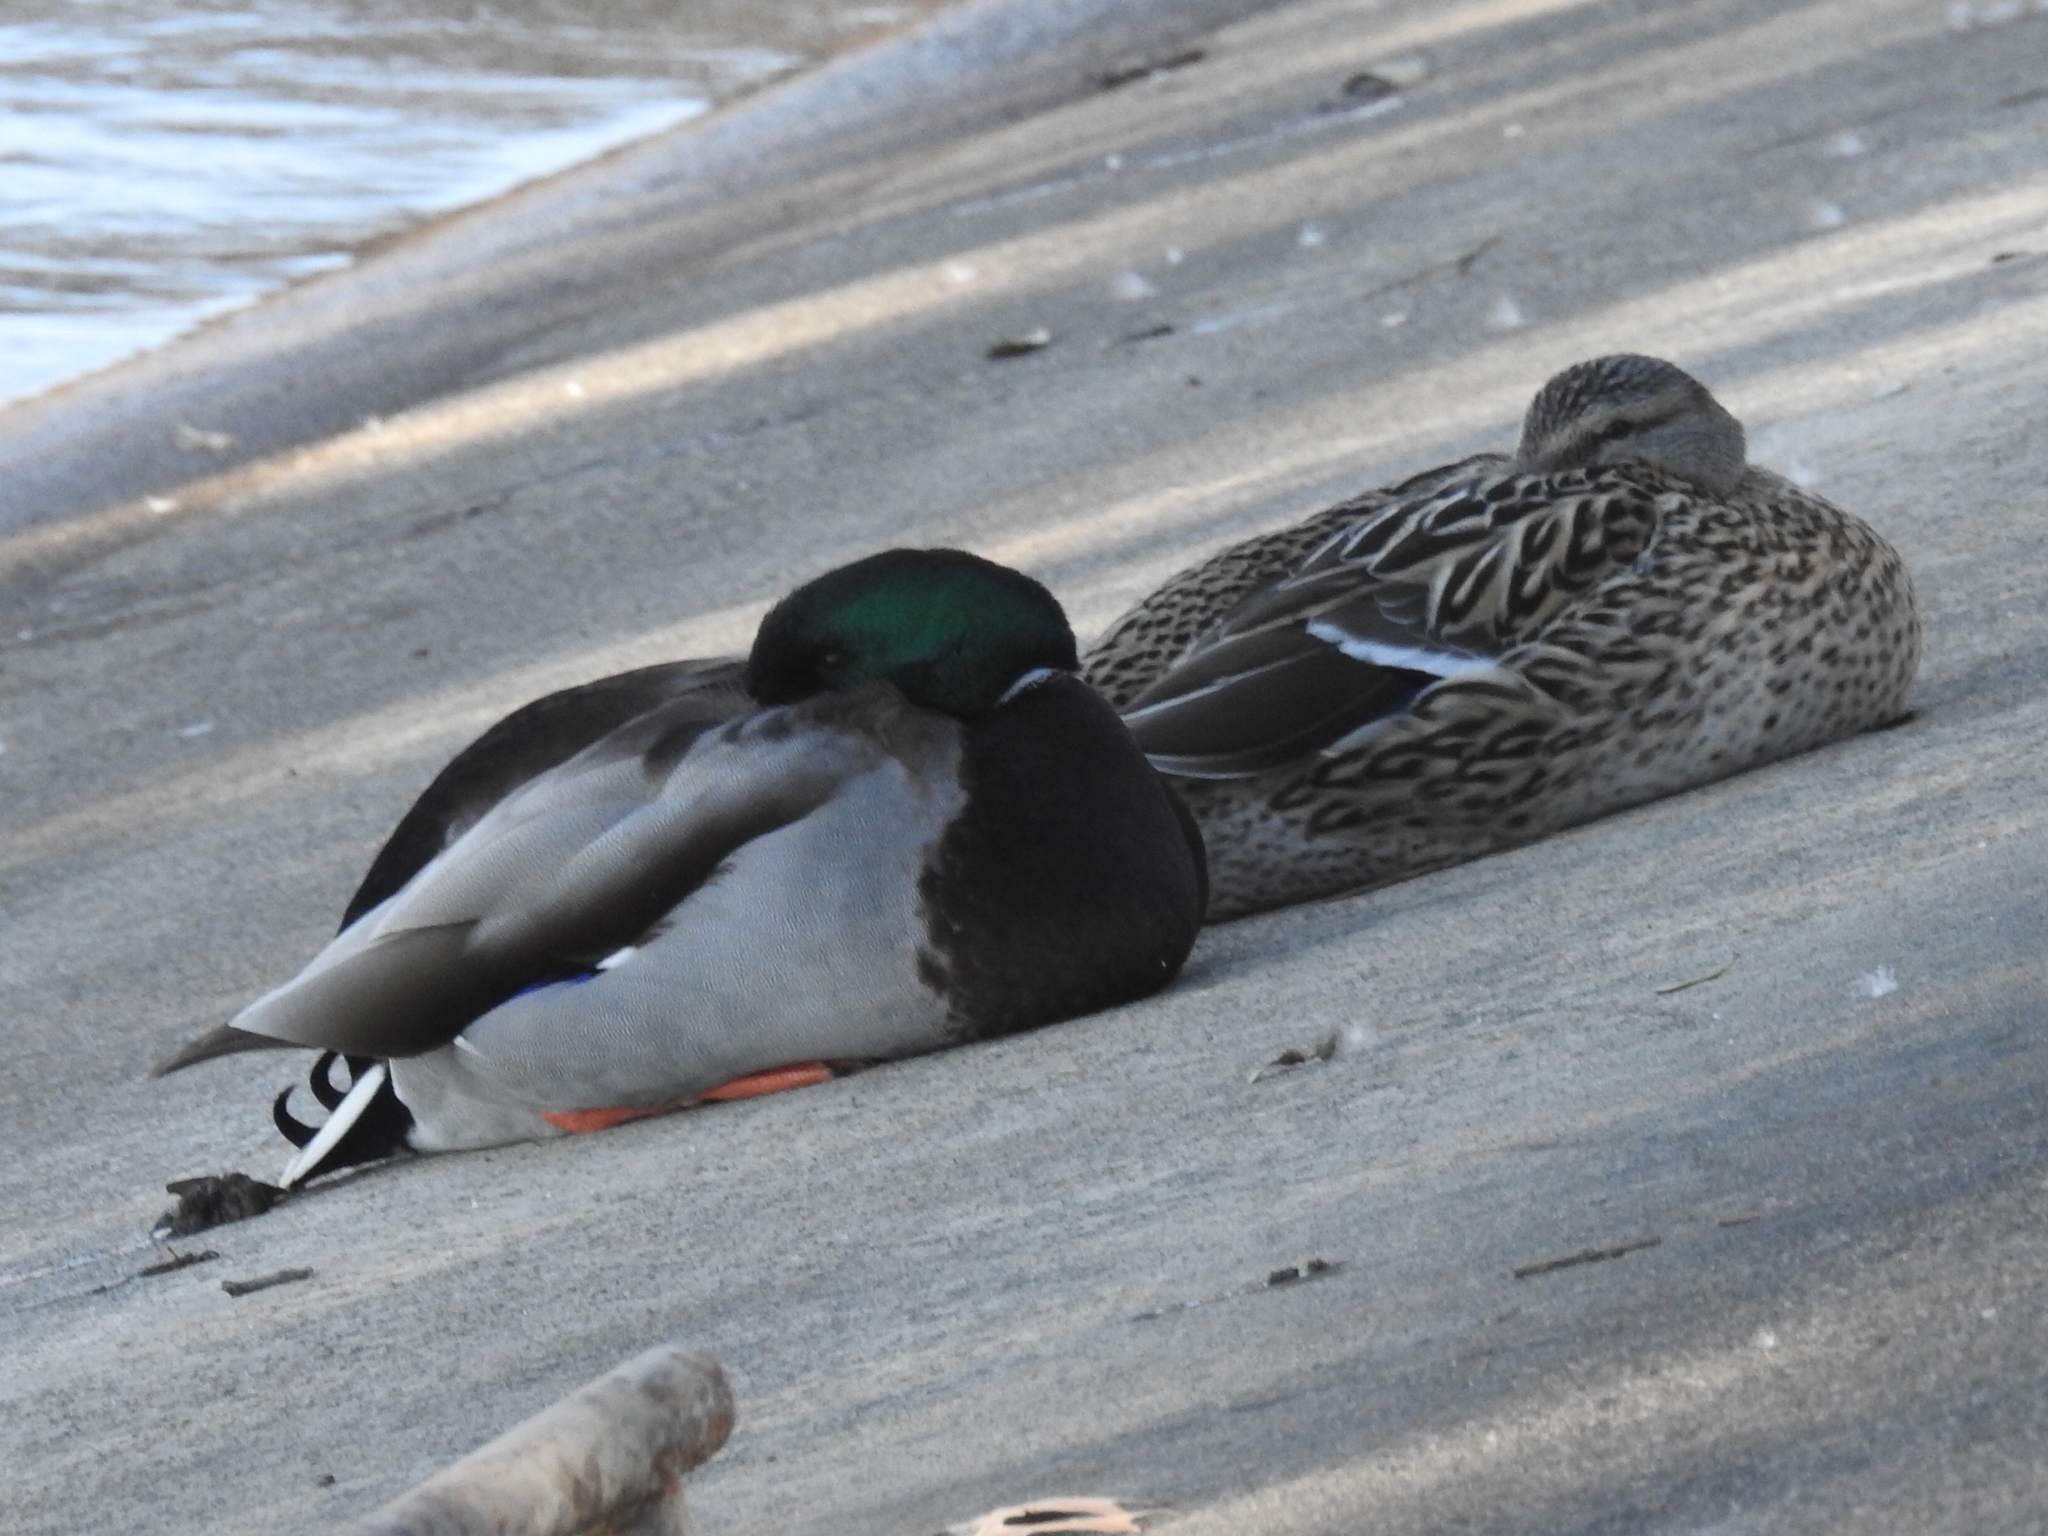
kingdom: Animalia
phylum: Chordata
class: Aves
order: Anseriformes
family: Anatidae
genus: Anas
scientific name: Anas platyrhynchos
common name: Mallard
